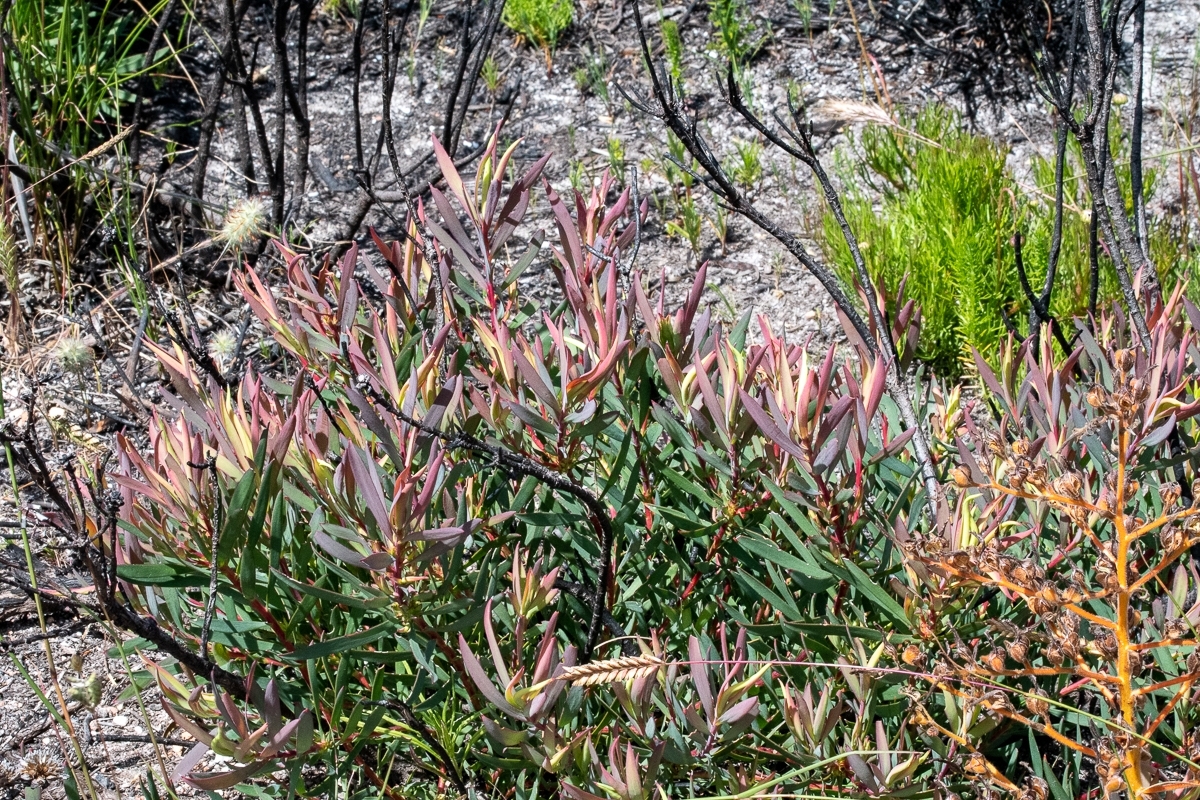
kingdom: Plantae
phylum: Tracheophyta
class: Magnoliopsida
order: Proteales
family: Proteaceae
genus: Leucadendron
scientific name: Leucadendron salignum
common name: Common sunshine conebush
